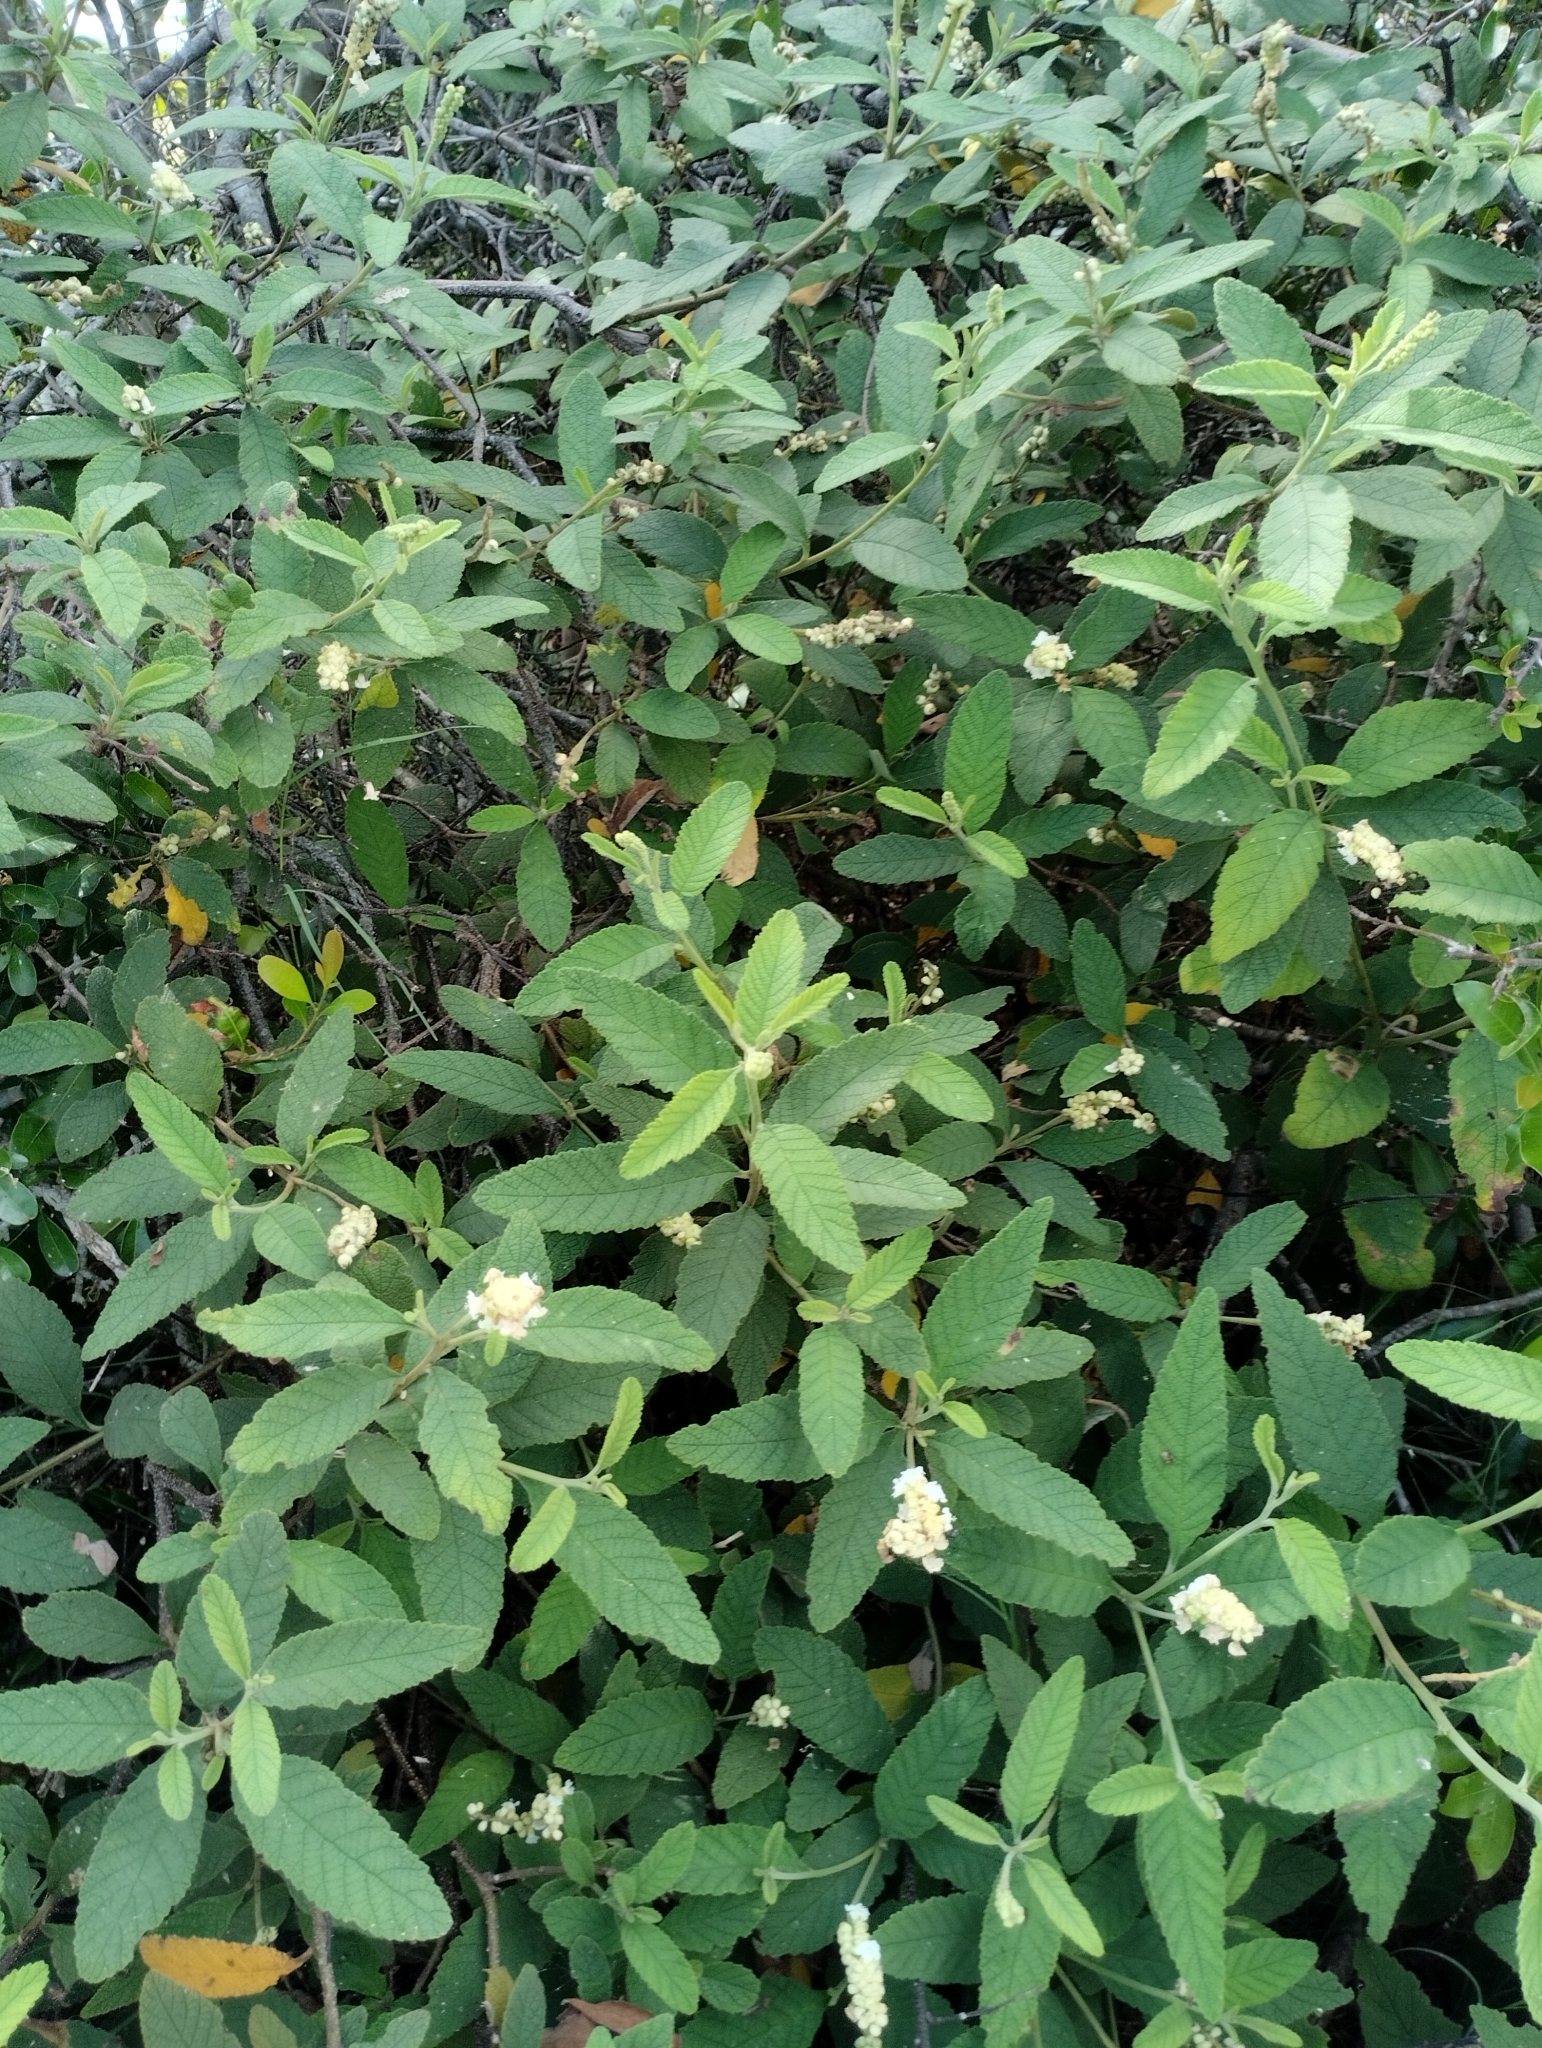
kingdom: Plantae
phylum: Tracheophyta
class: Magnoliopsida
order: Boraginales
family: Cordiaceae
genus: Varronia
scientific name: Varronia curassavica
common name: Black sage
